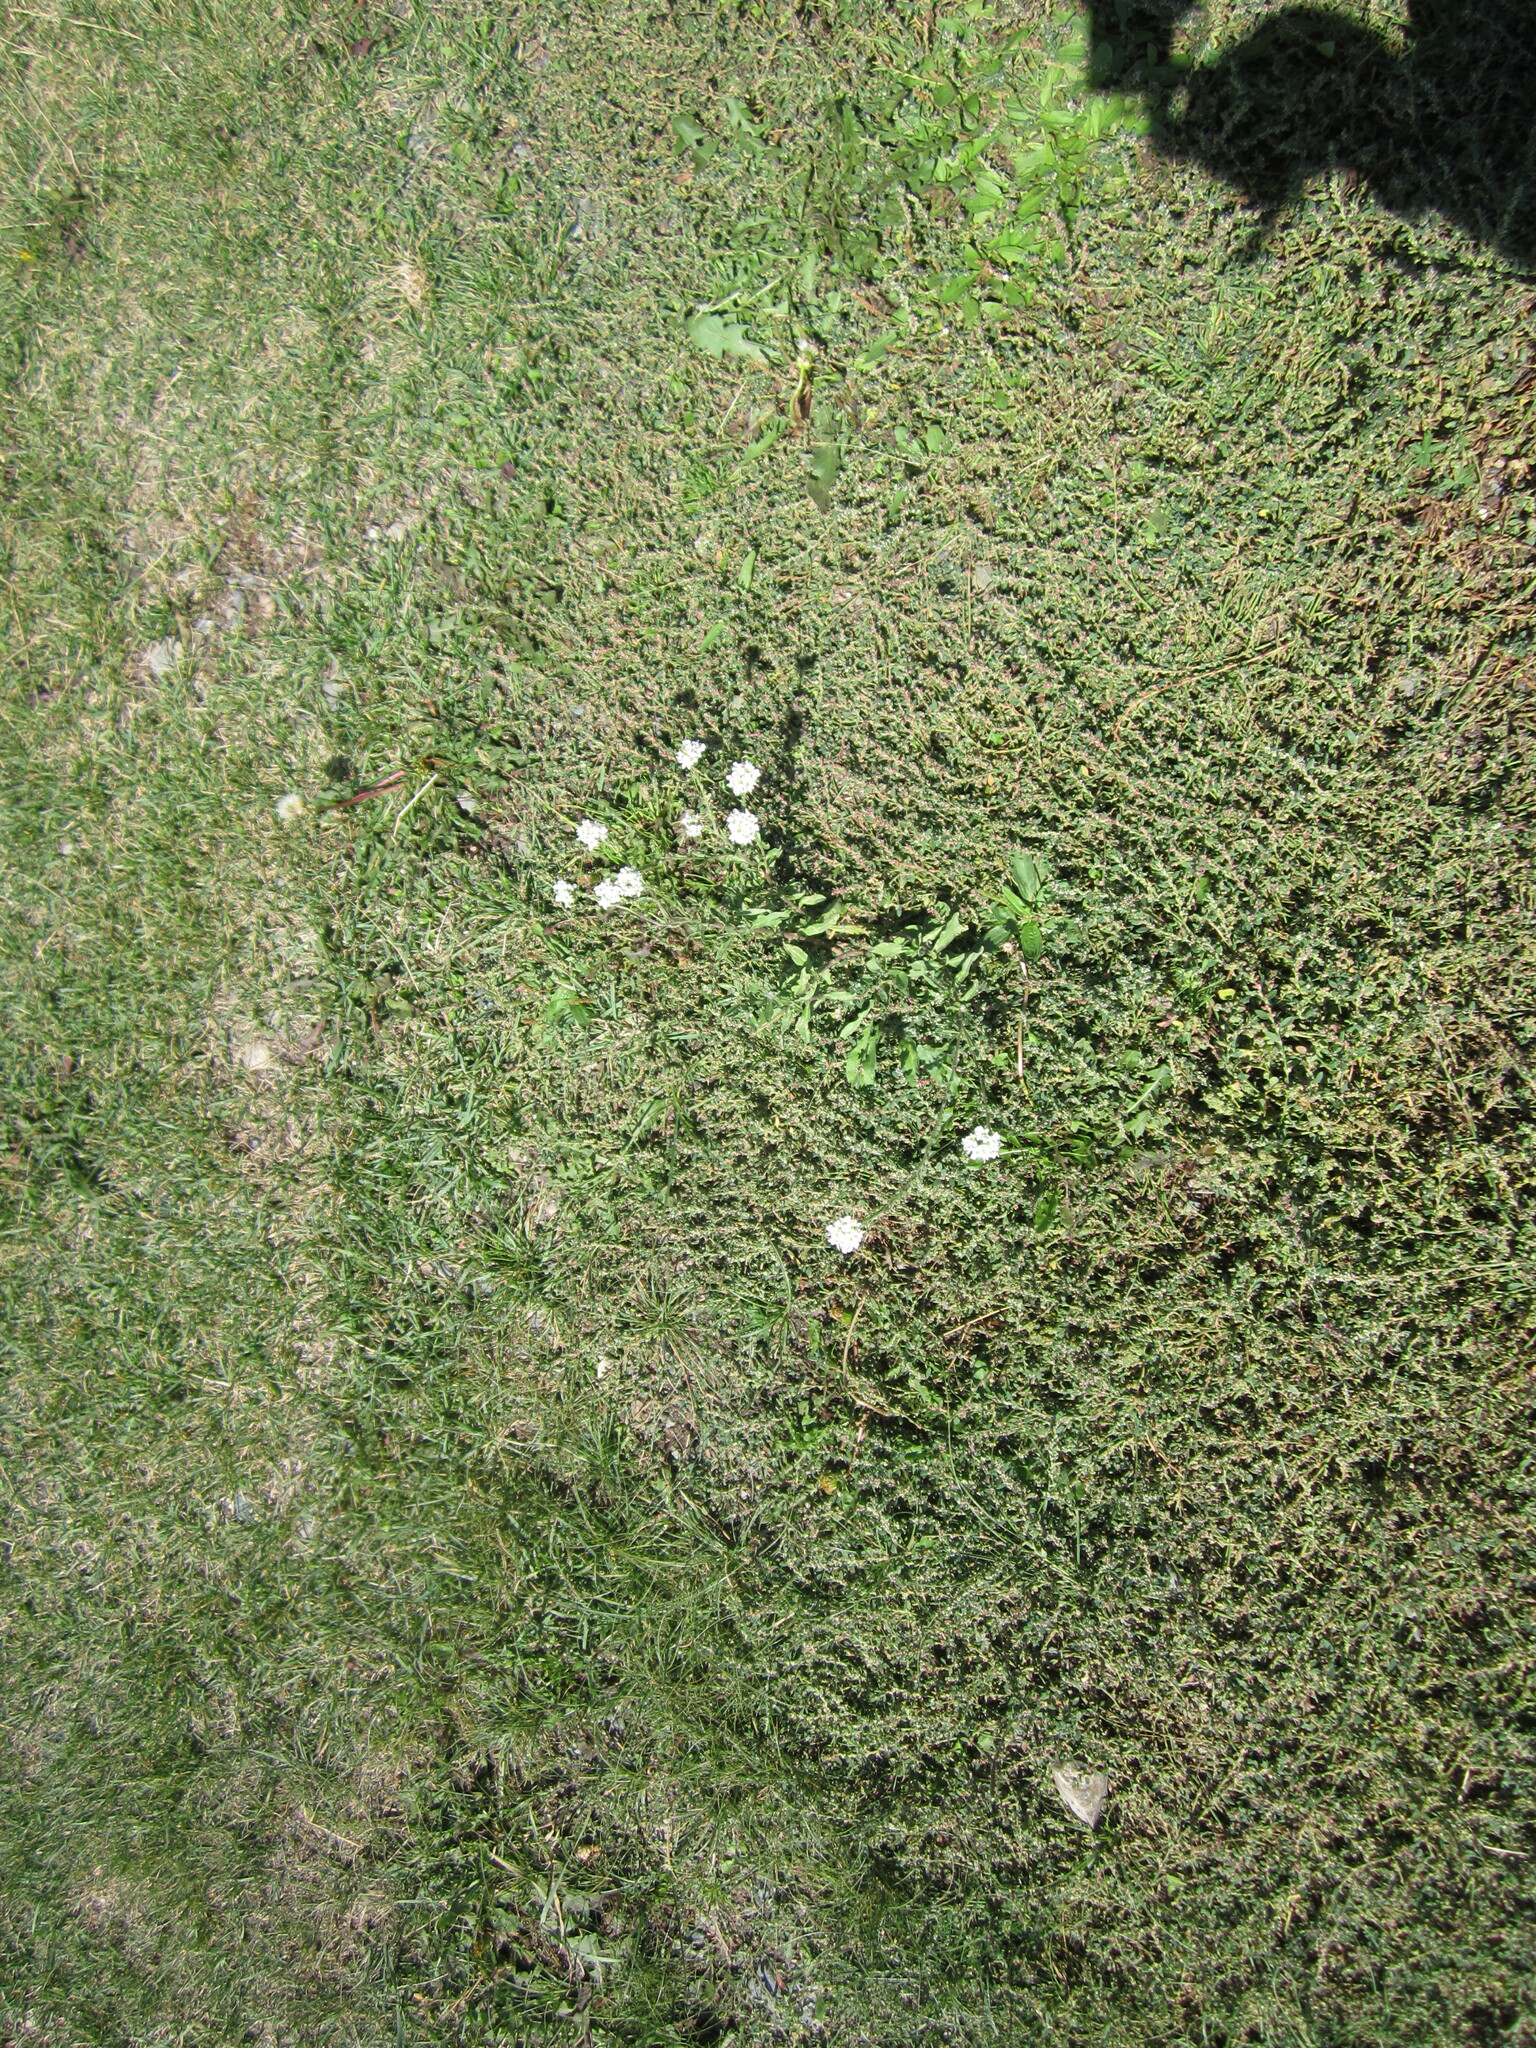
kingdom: Plantae
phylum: Tracheophyta
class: Magnoliopsida
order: Brassicales
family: Brassicaceae
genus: Berteroa
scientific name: Berteroa incana
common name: Hoary alison
